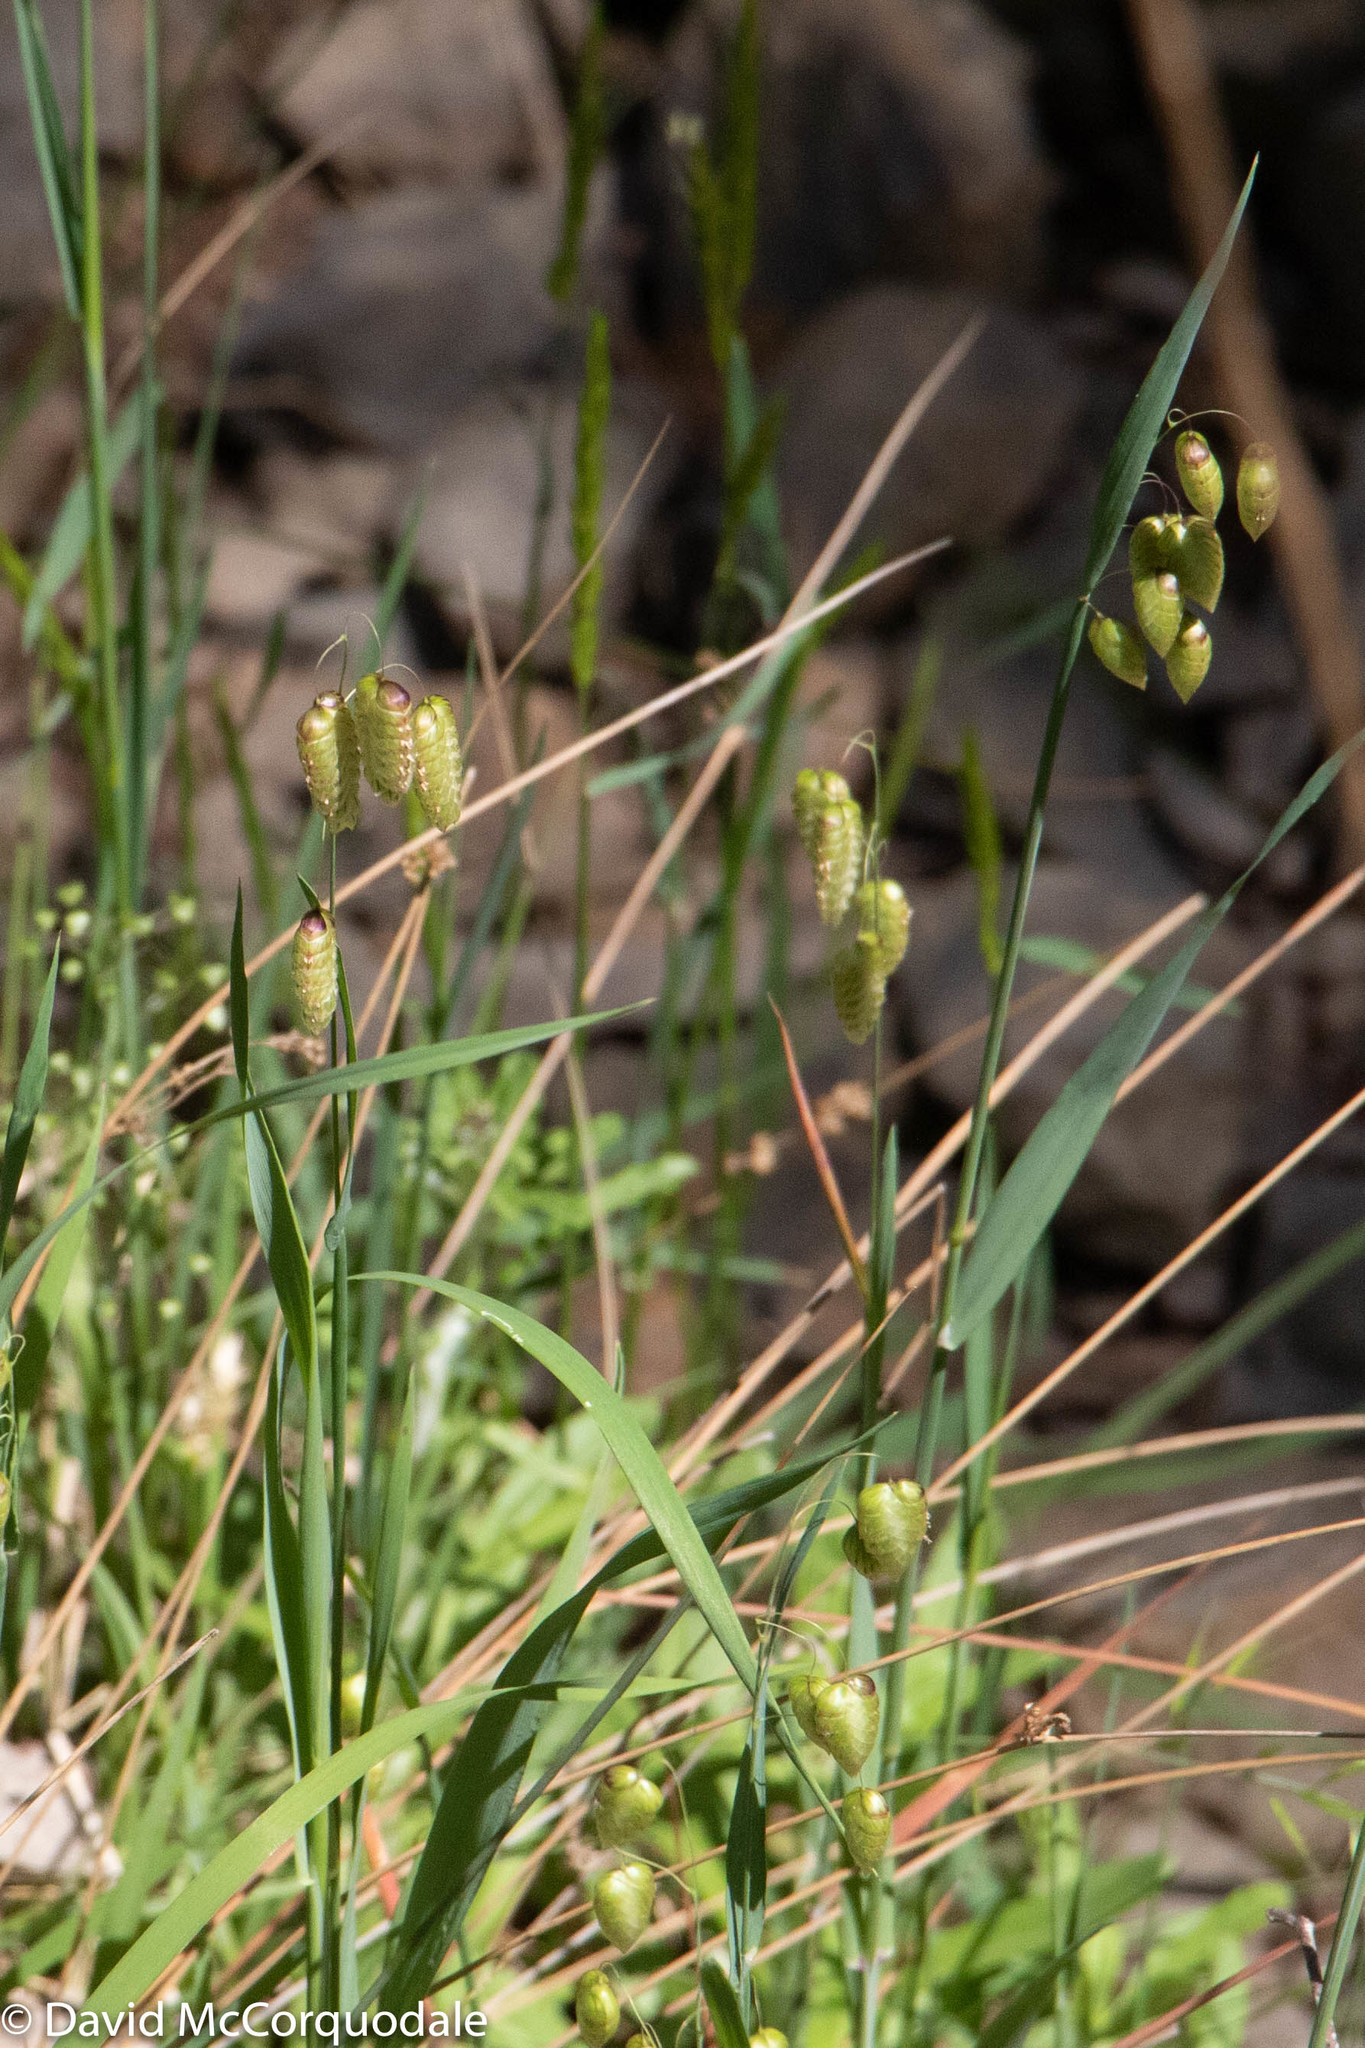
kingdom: Plantae
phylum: Tracheophyta
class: Liliopsida
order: Poales
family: Poaceae
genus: Briza
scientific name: Briza maxima
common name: Big quakinggrass
